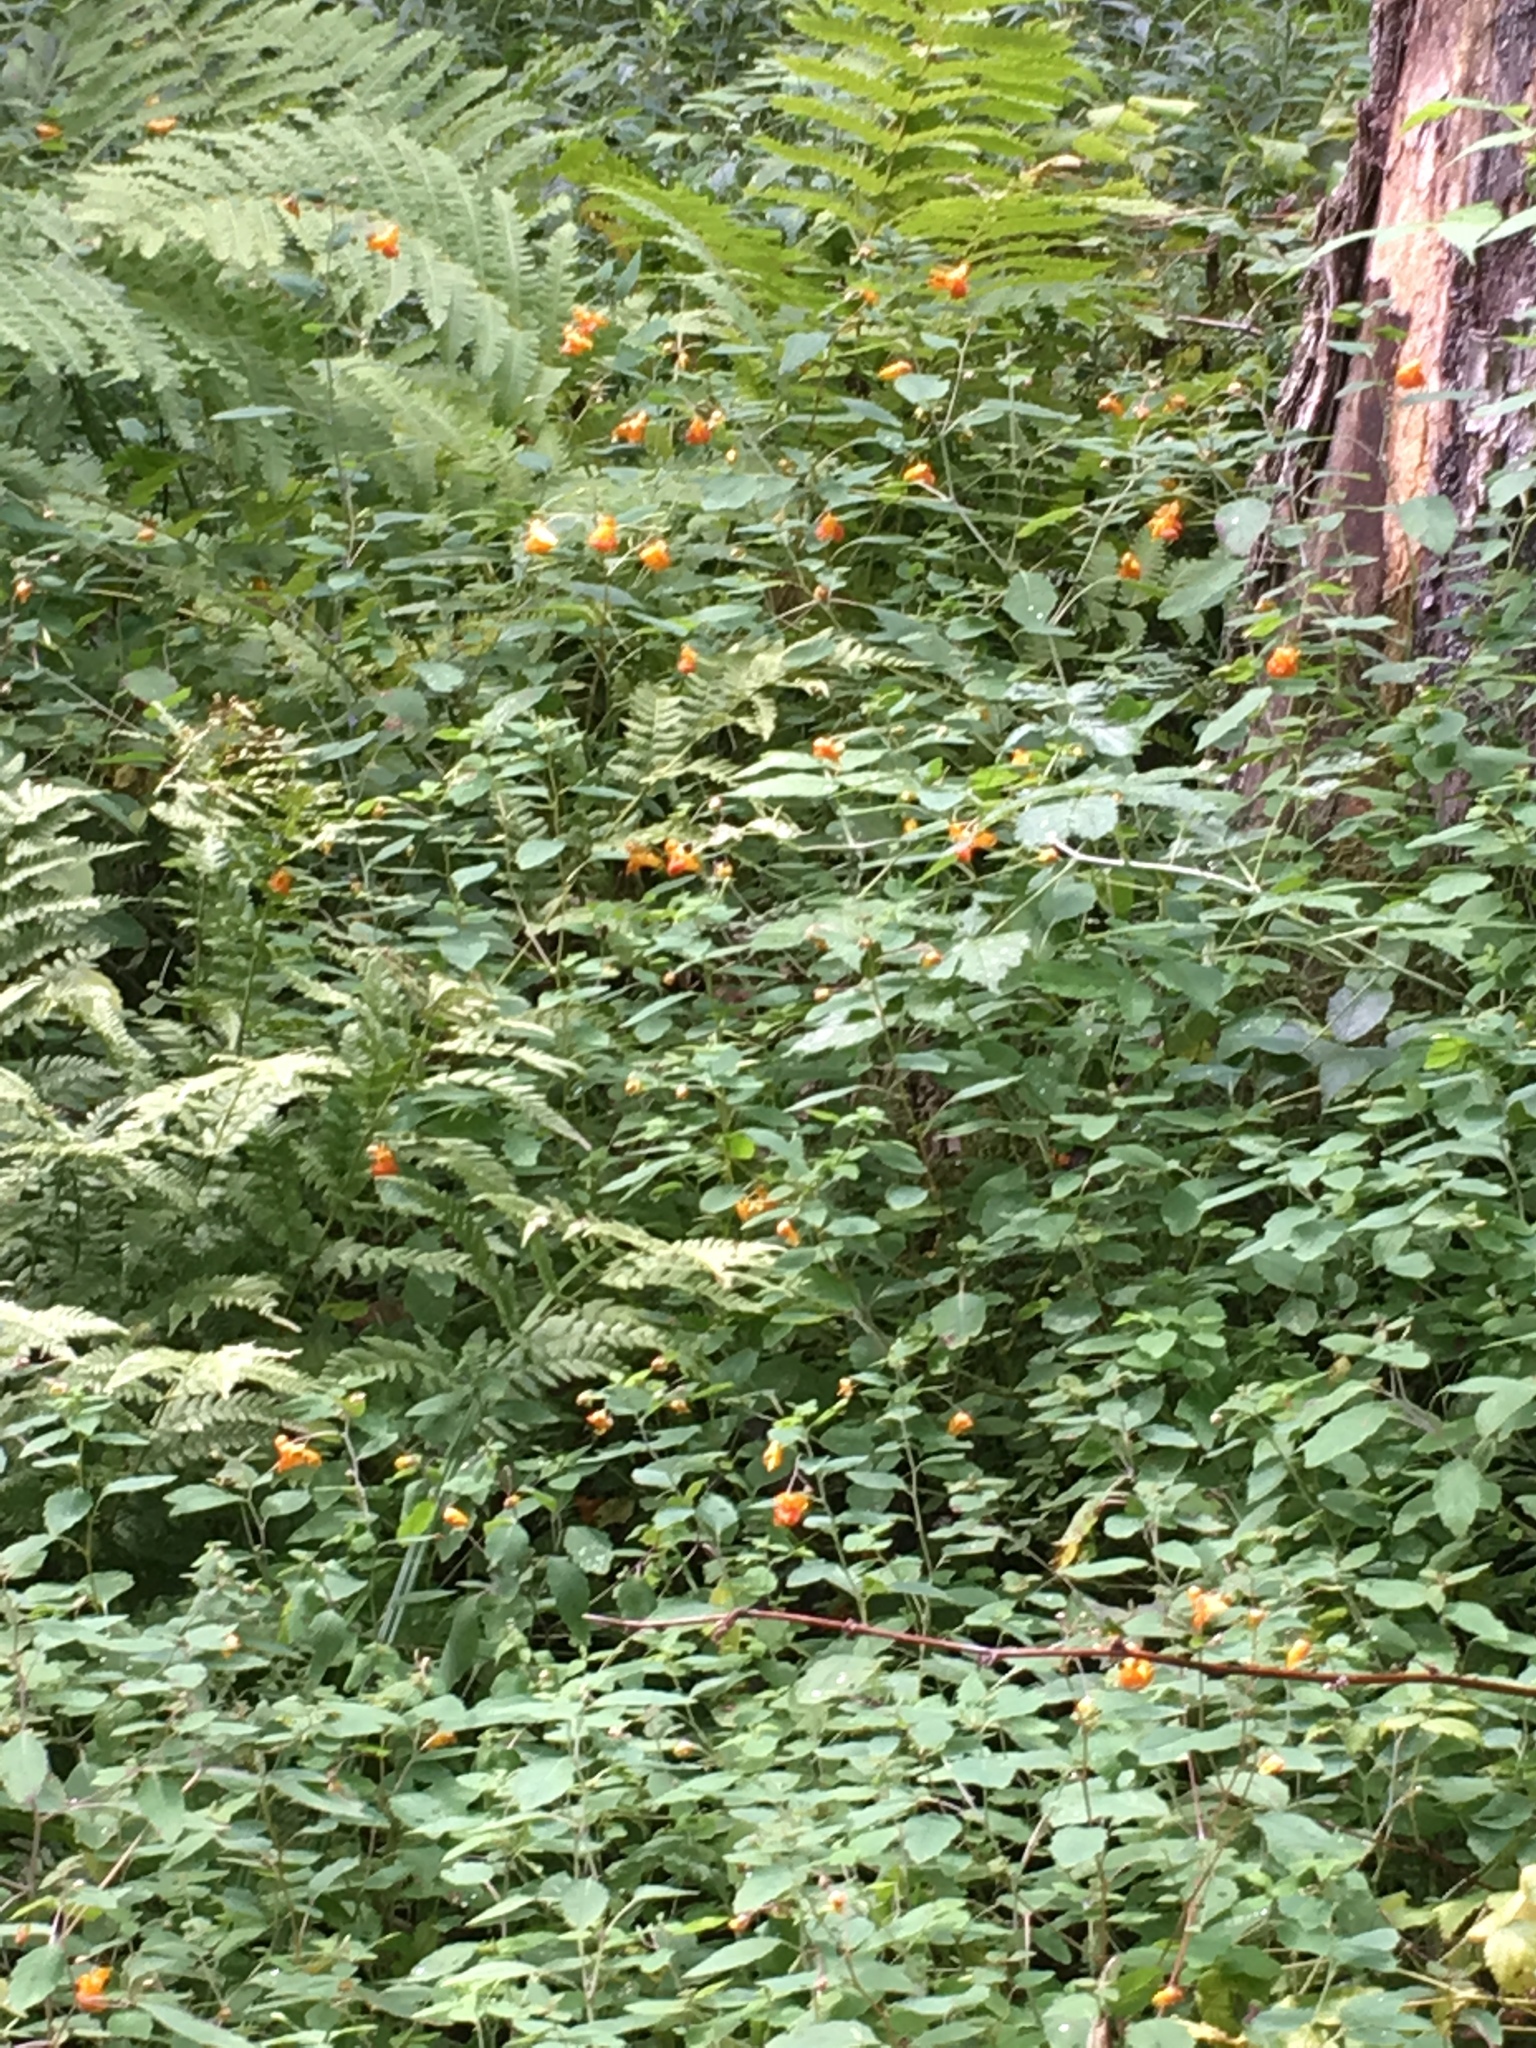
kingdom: Plantae
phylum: Tracheophyta
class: Magnoliopsida
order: Ericales
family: Balsaminaceae
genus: Impatiens
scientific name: Impatiens capensis
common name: Orange balsam
